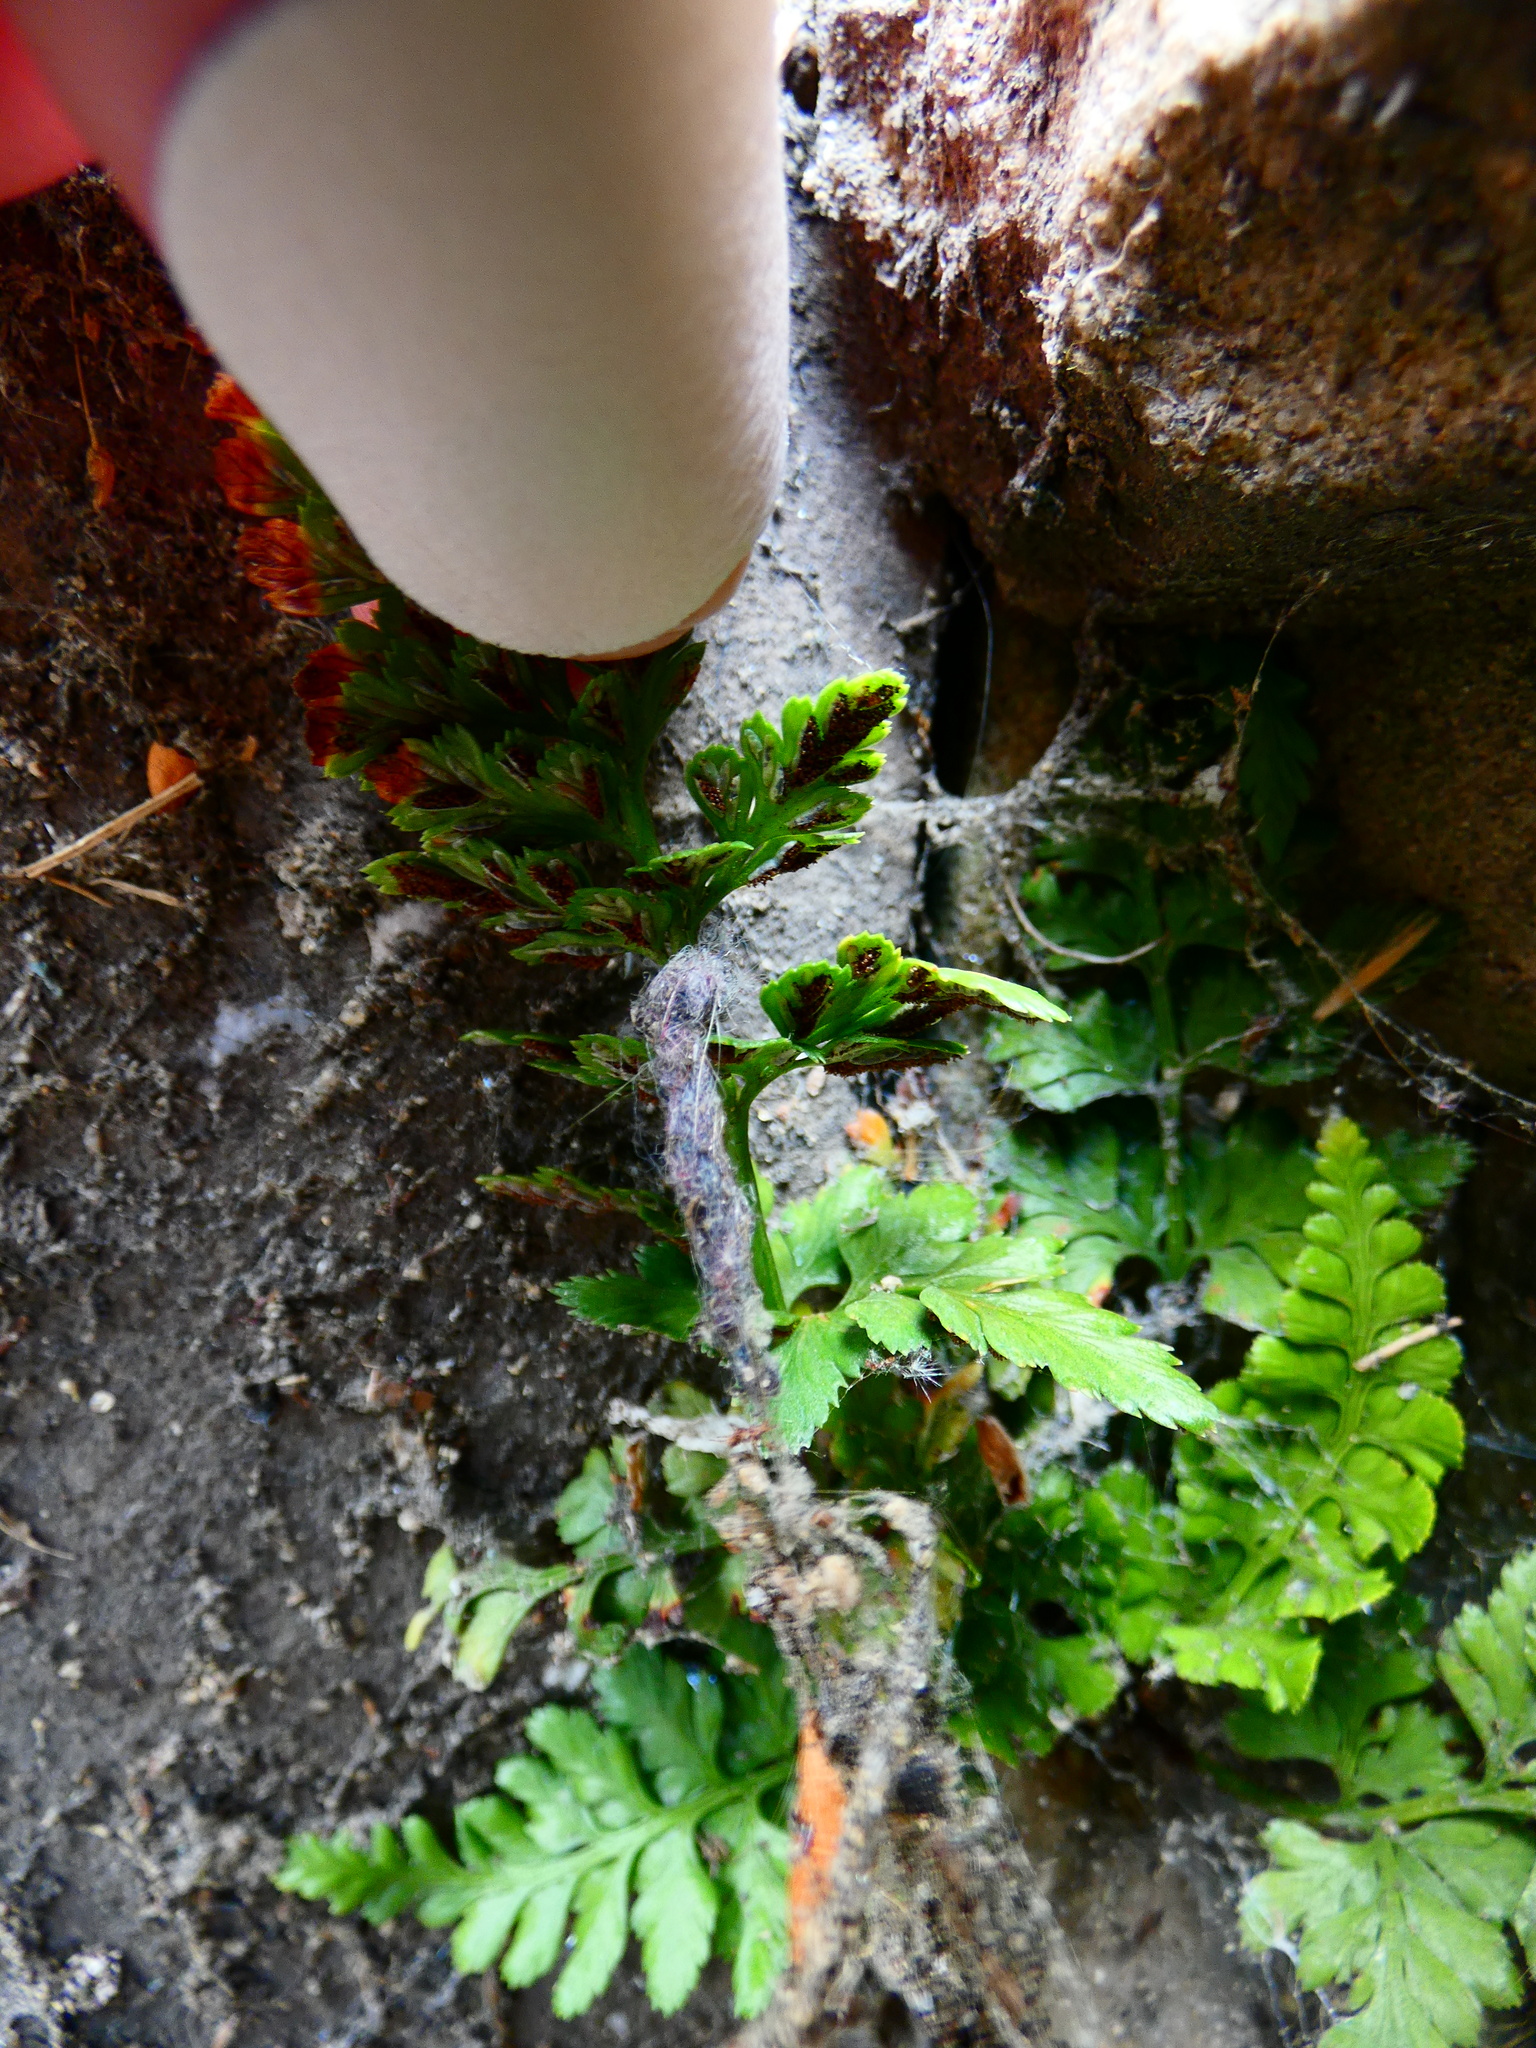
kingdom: Plantae
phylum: Tracheophyta
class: Polypodiopsida
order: Polypodiales
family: Aspleniaceae
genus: Asplenium
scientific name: Asplenium adiantum-nigrum
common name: Black spleenwort
